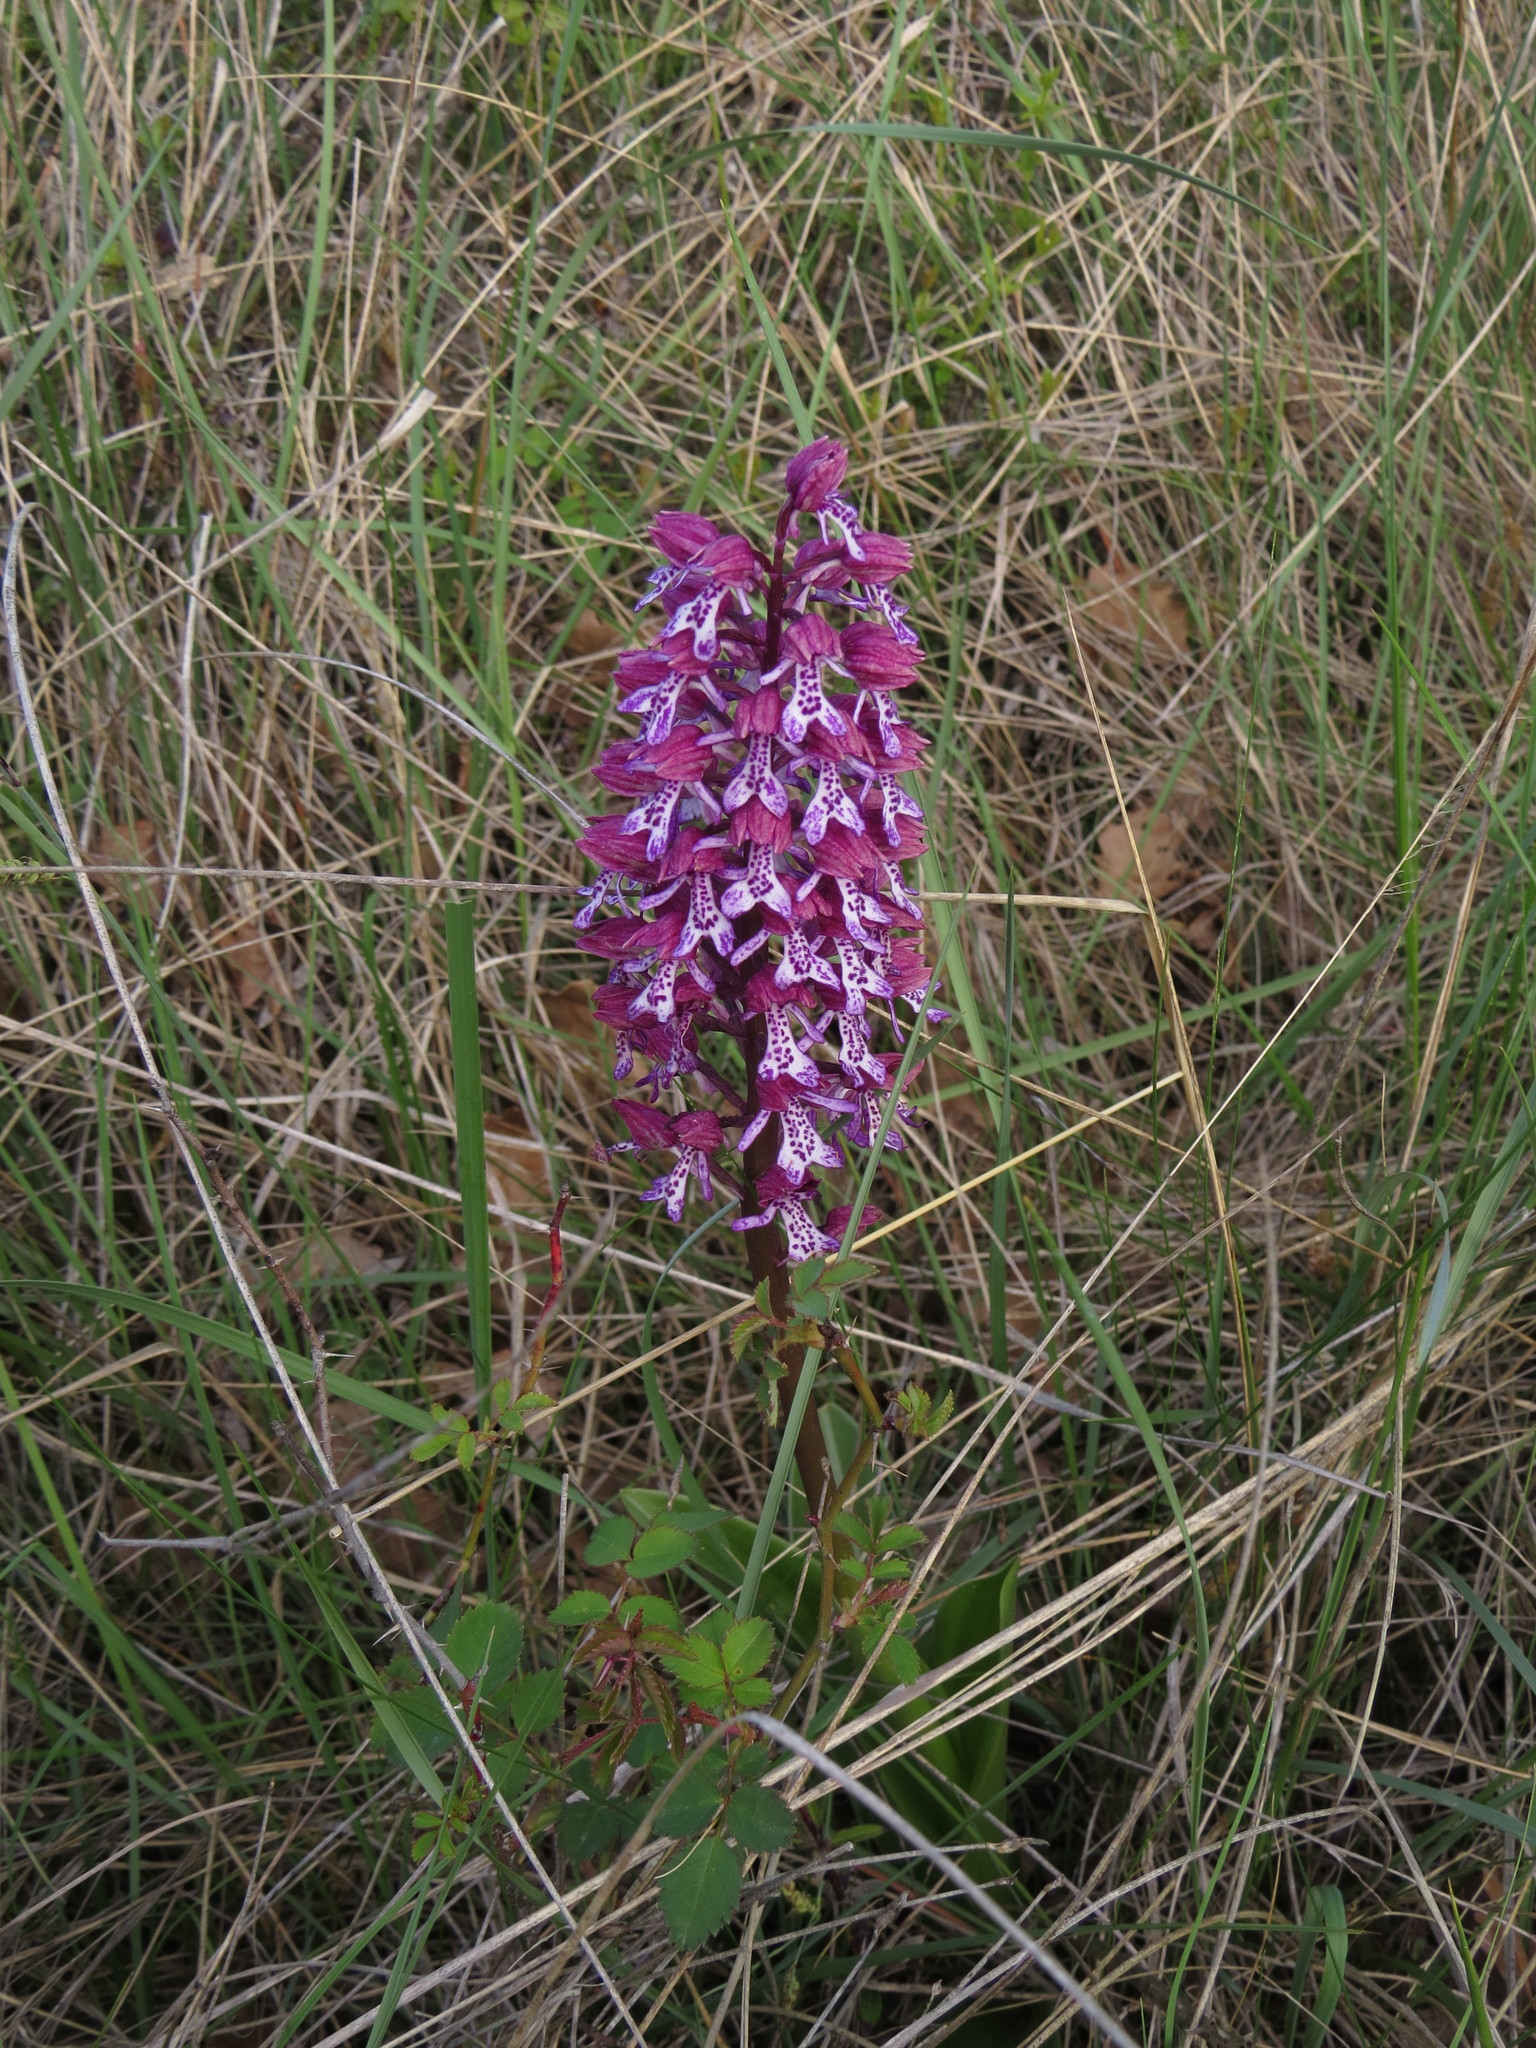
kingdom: Plantae
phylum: Tracheophyta
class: Liliopsida
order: Asparagales
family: Orchidaceae
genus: Orchis
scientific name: Orchis hybrida
